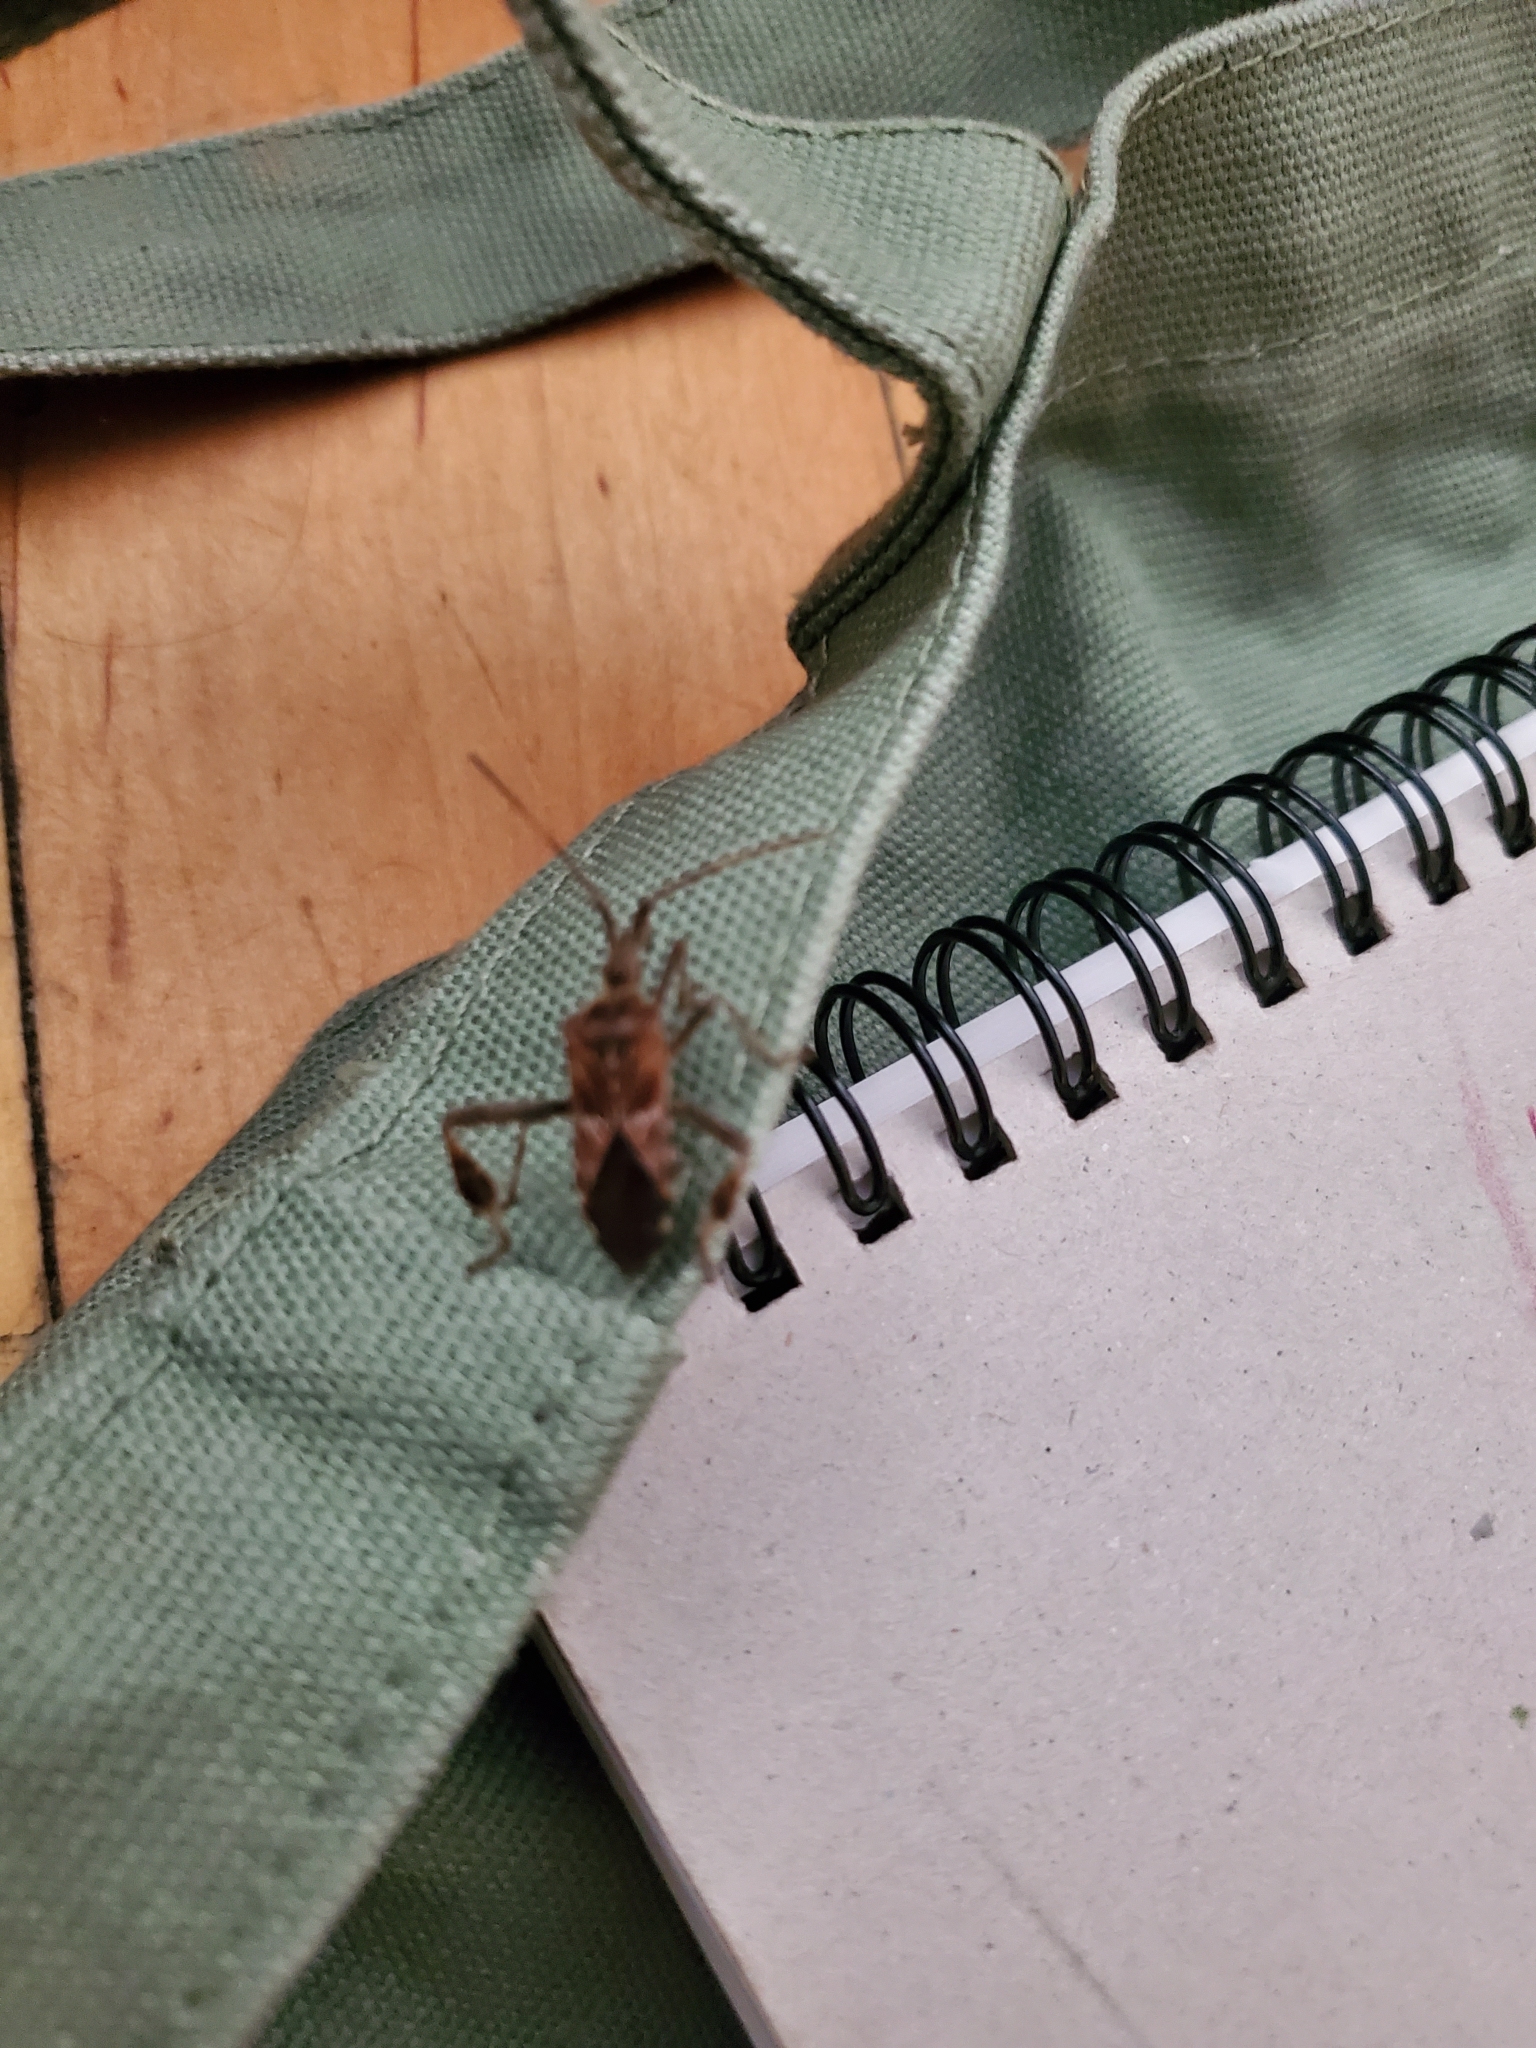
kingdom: Animalia
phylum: Arthropoda
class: Insecta
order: Hemiptera
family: Coreidae
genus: Leptoglossus
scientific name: Leptoglossus occidentalis
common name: Western conifer-seed bug
